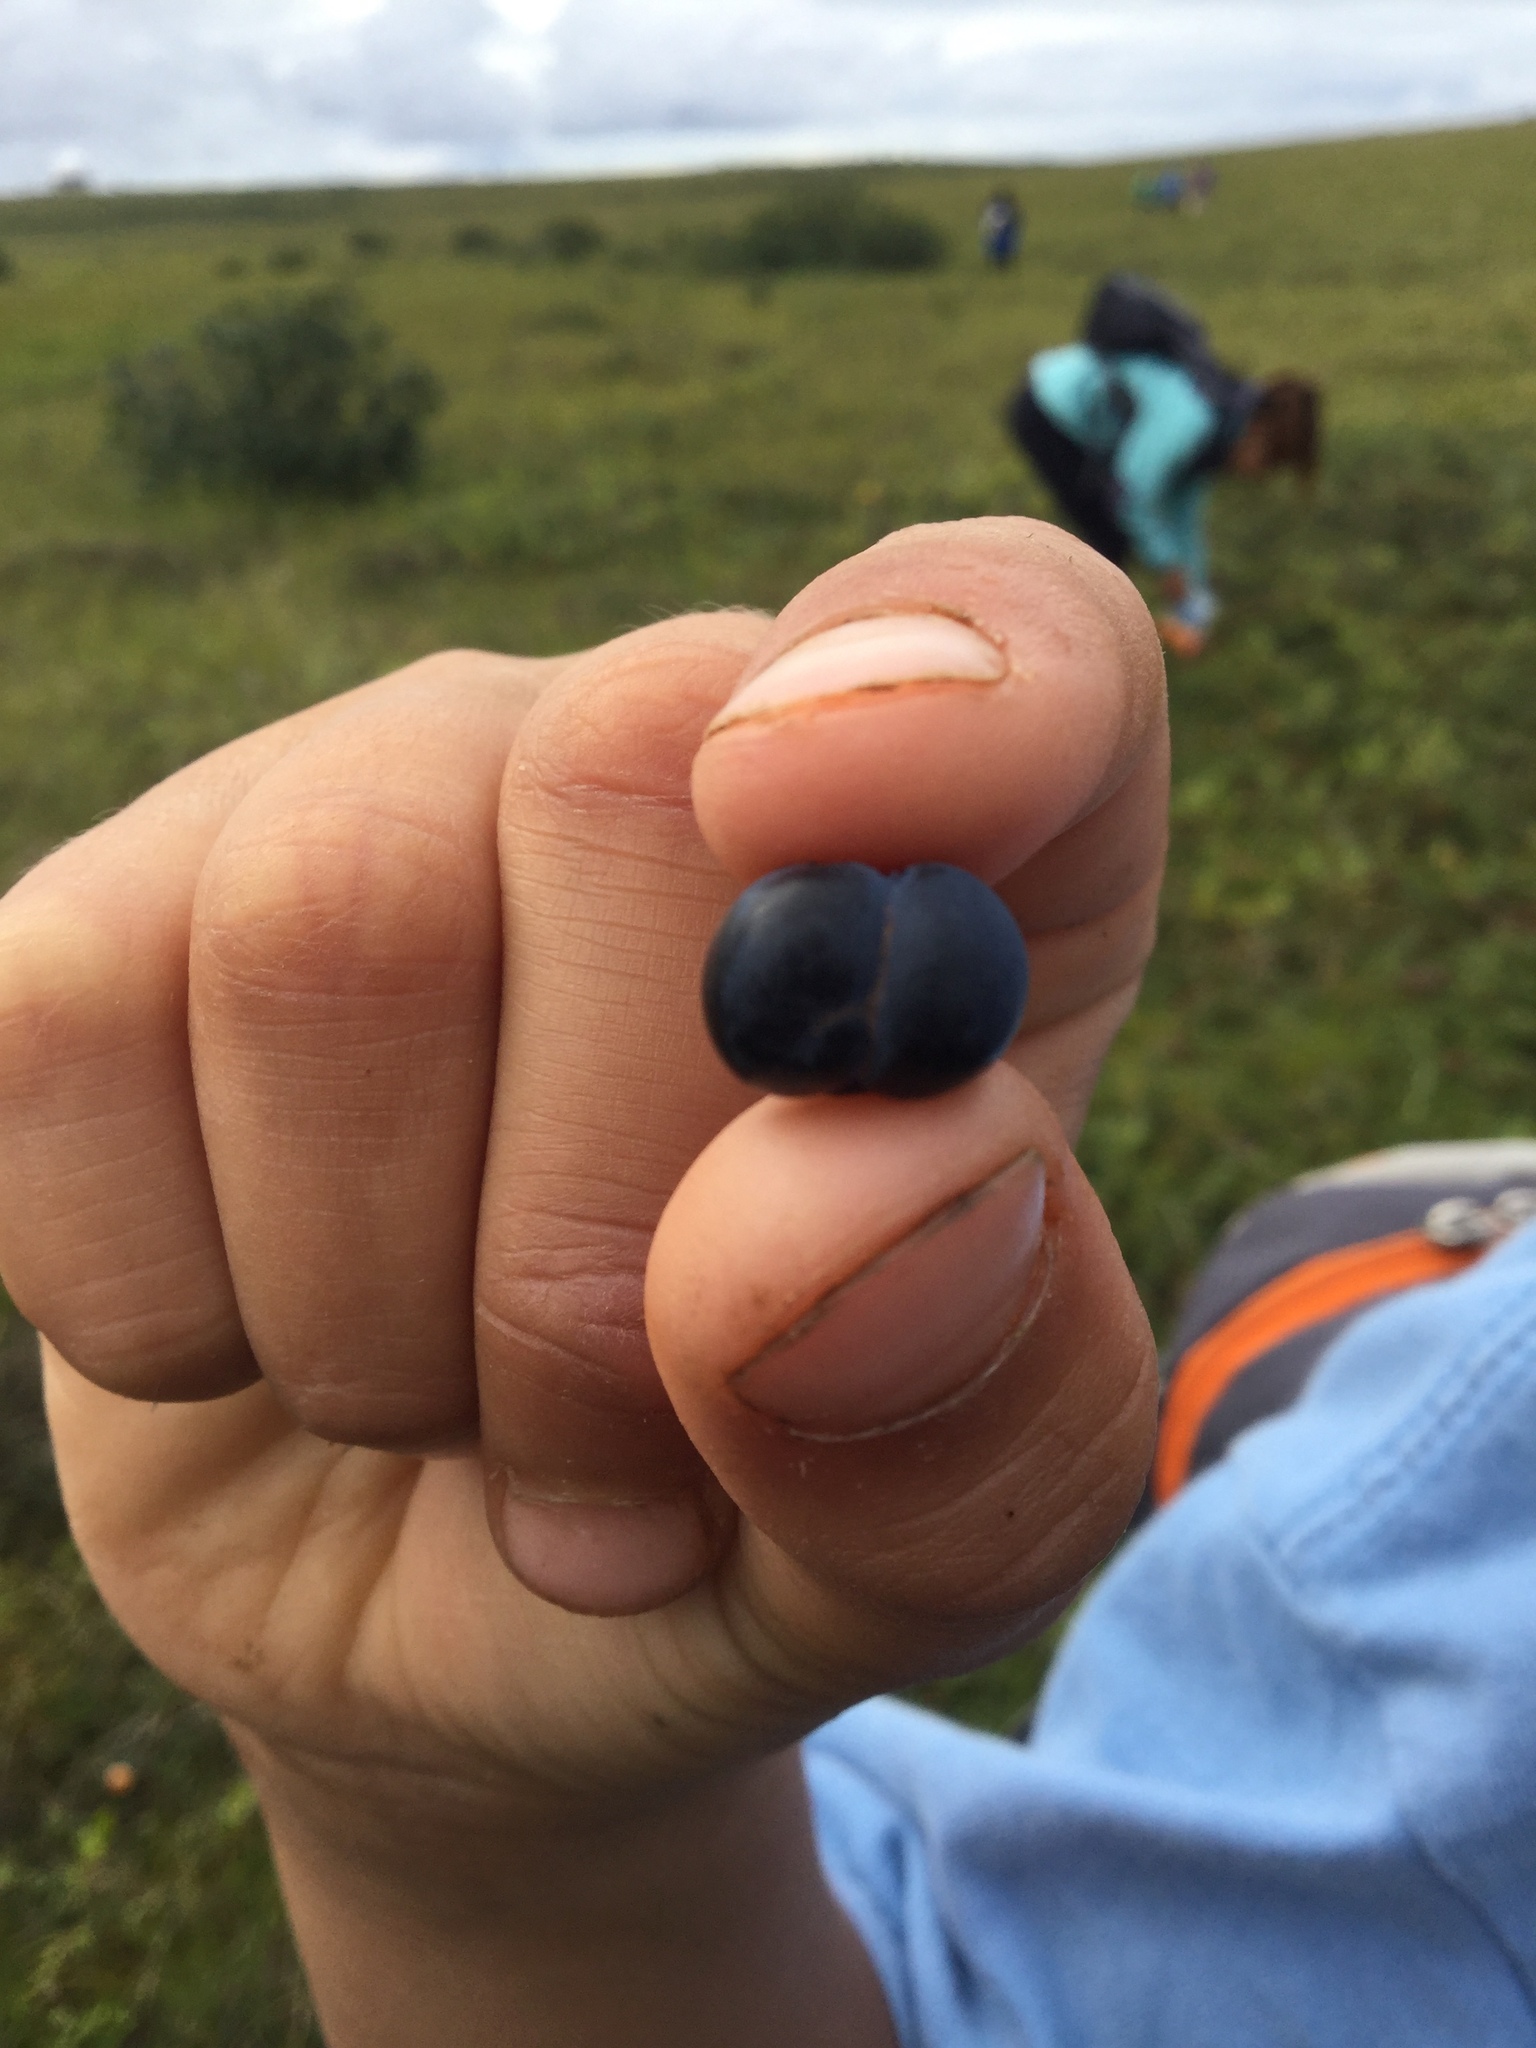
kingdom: Plantae
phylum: Tracheophyta
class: Magnoliopsida
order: Ericales
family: Ericaceae
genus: Vaccinium
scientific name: Vaccinium uliginosum
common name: Bog bilberry
